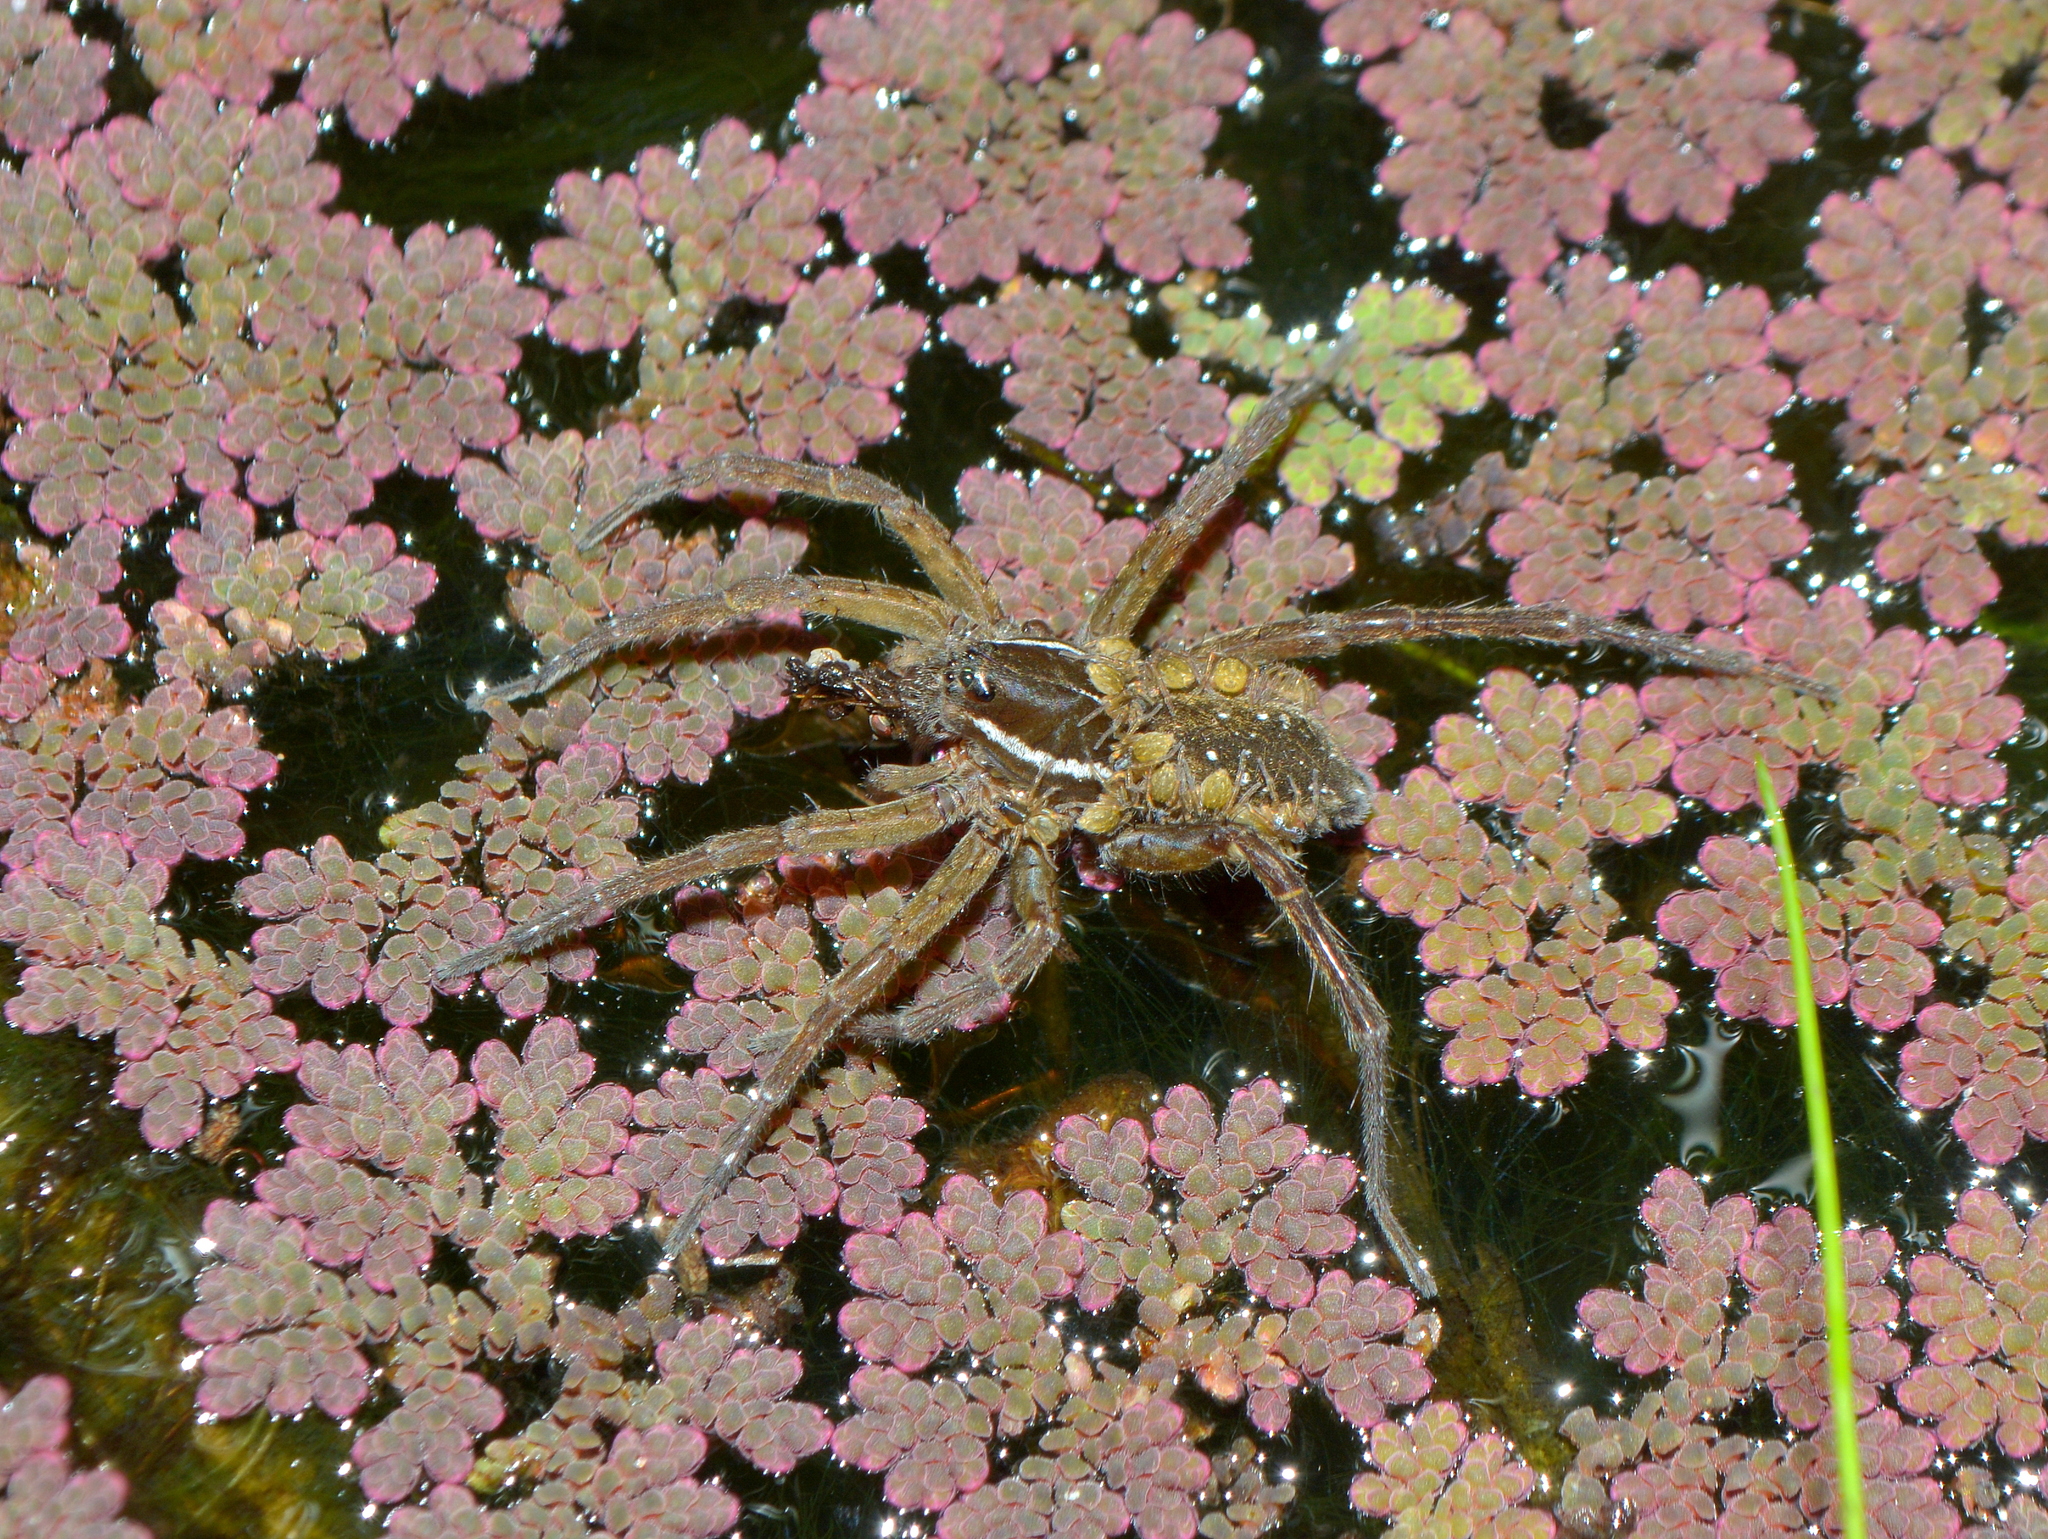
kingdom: Animalia
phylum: Arthropoda
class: Arachnida
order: Araneae
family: Lycosidae
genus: Diapontia
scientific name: Diapontia uruguayensis
